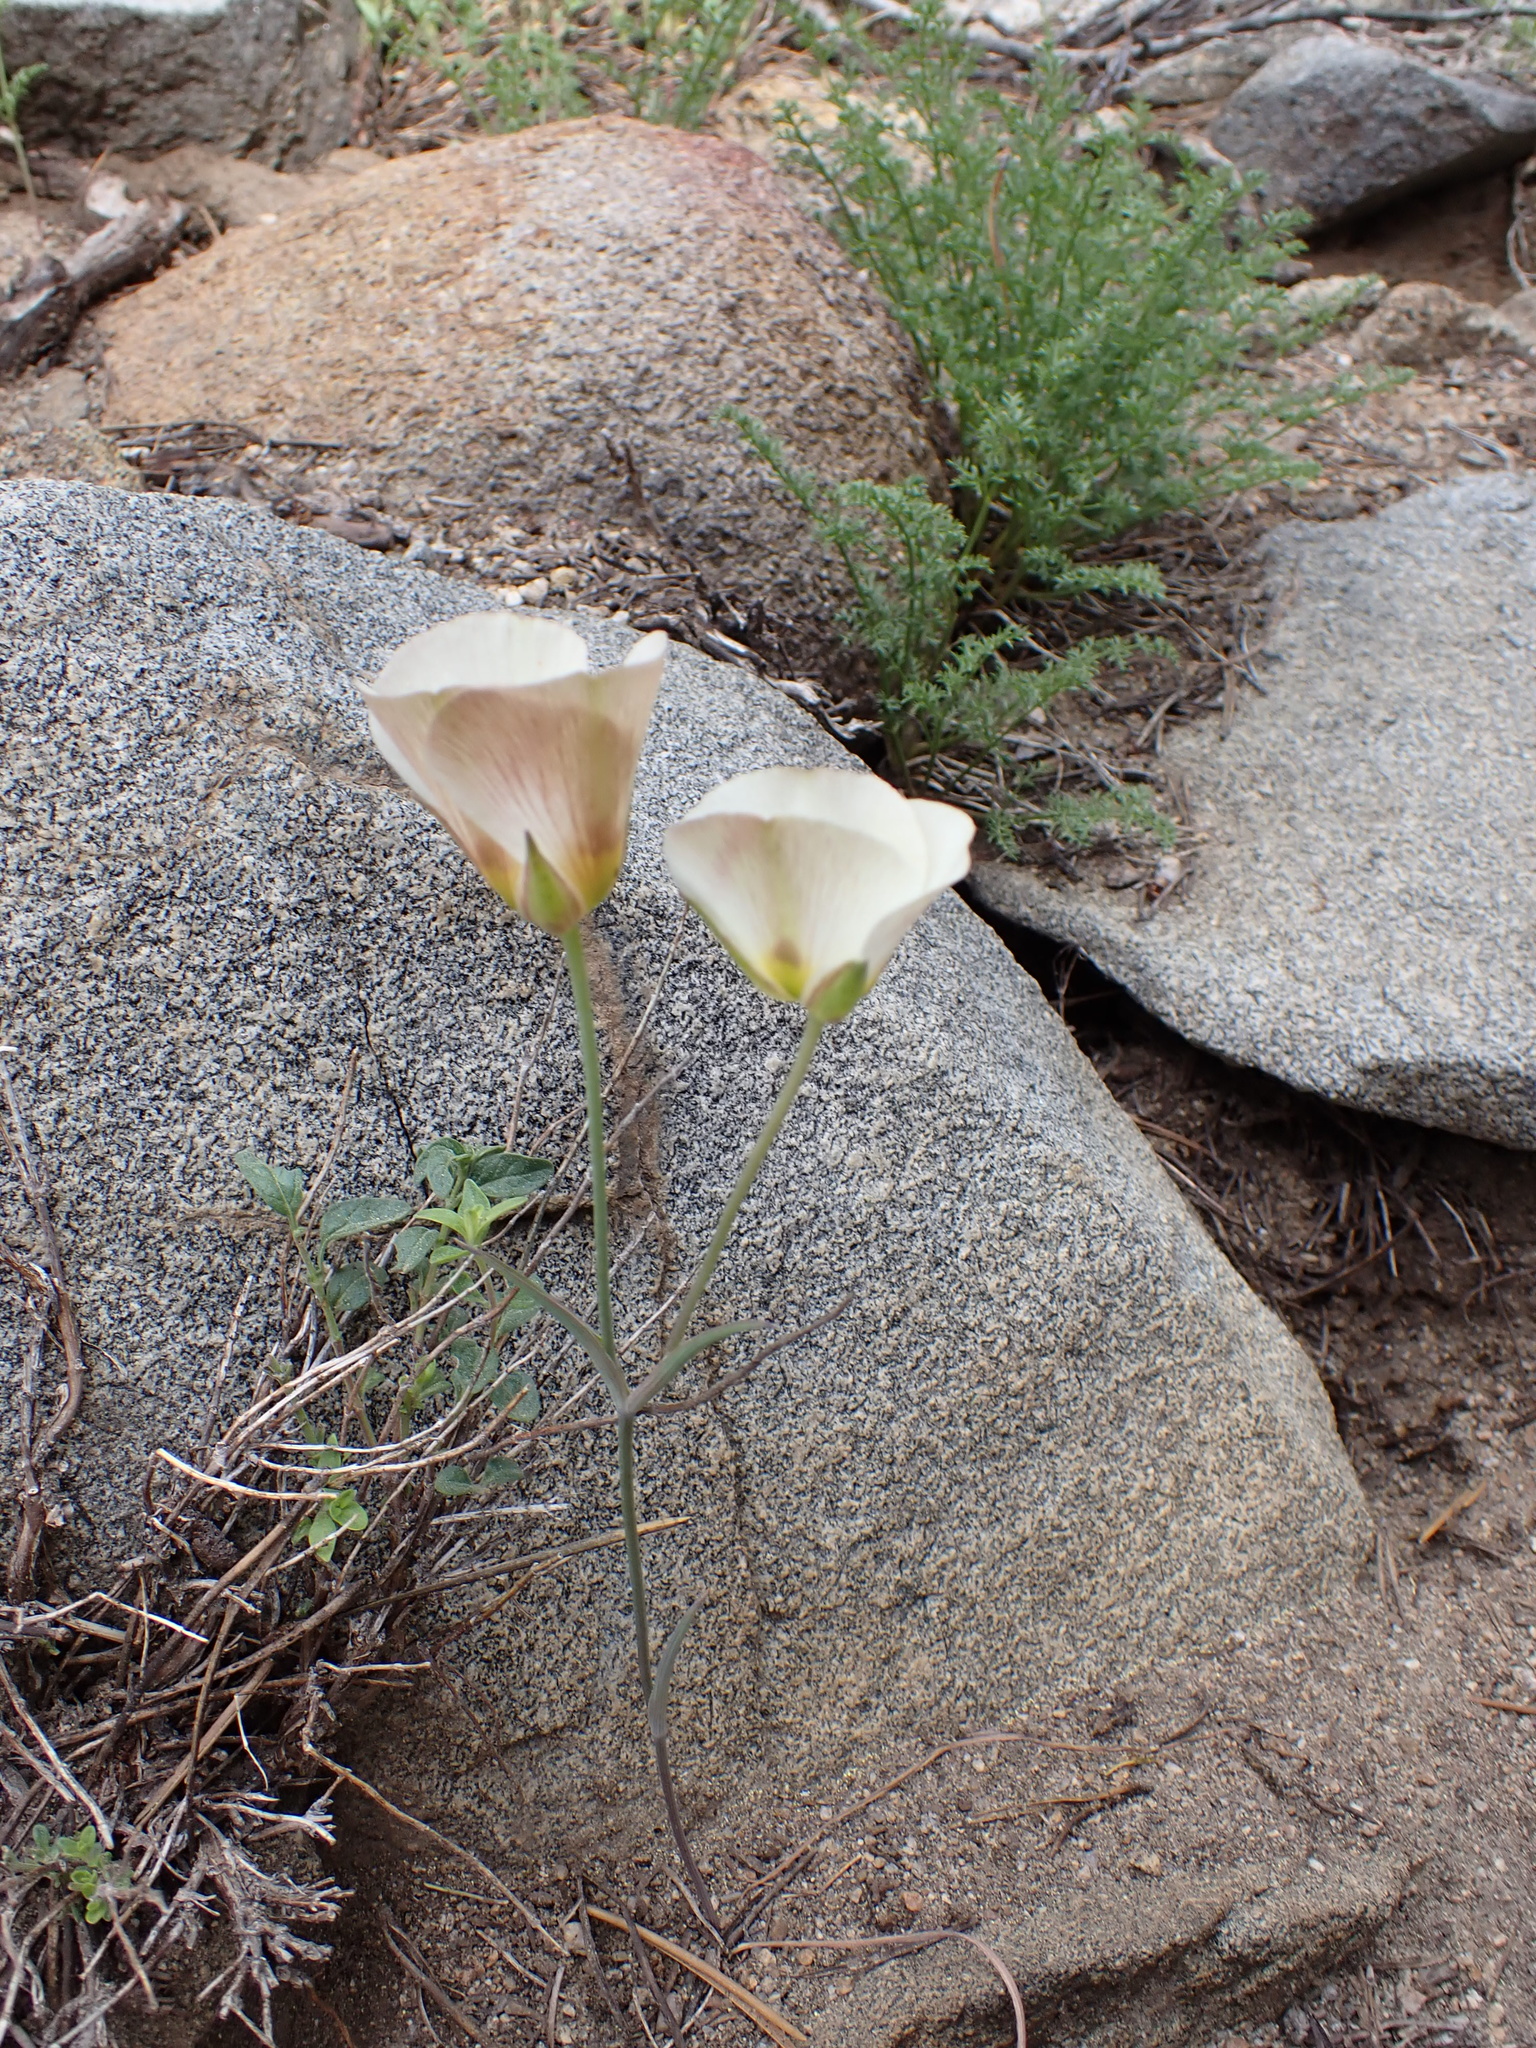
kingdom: Plantae
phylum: Tracheophyta
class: Liliopsida
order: Liliales
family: Liliaceae
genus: Calochortus
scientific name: Calochortus leichtlinii
